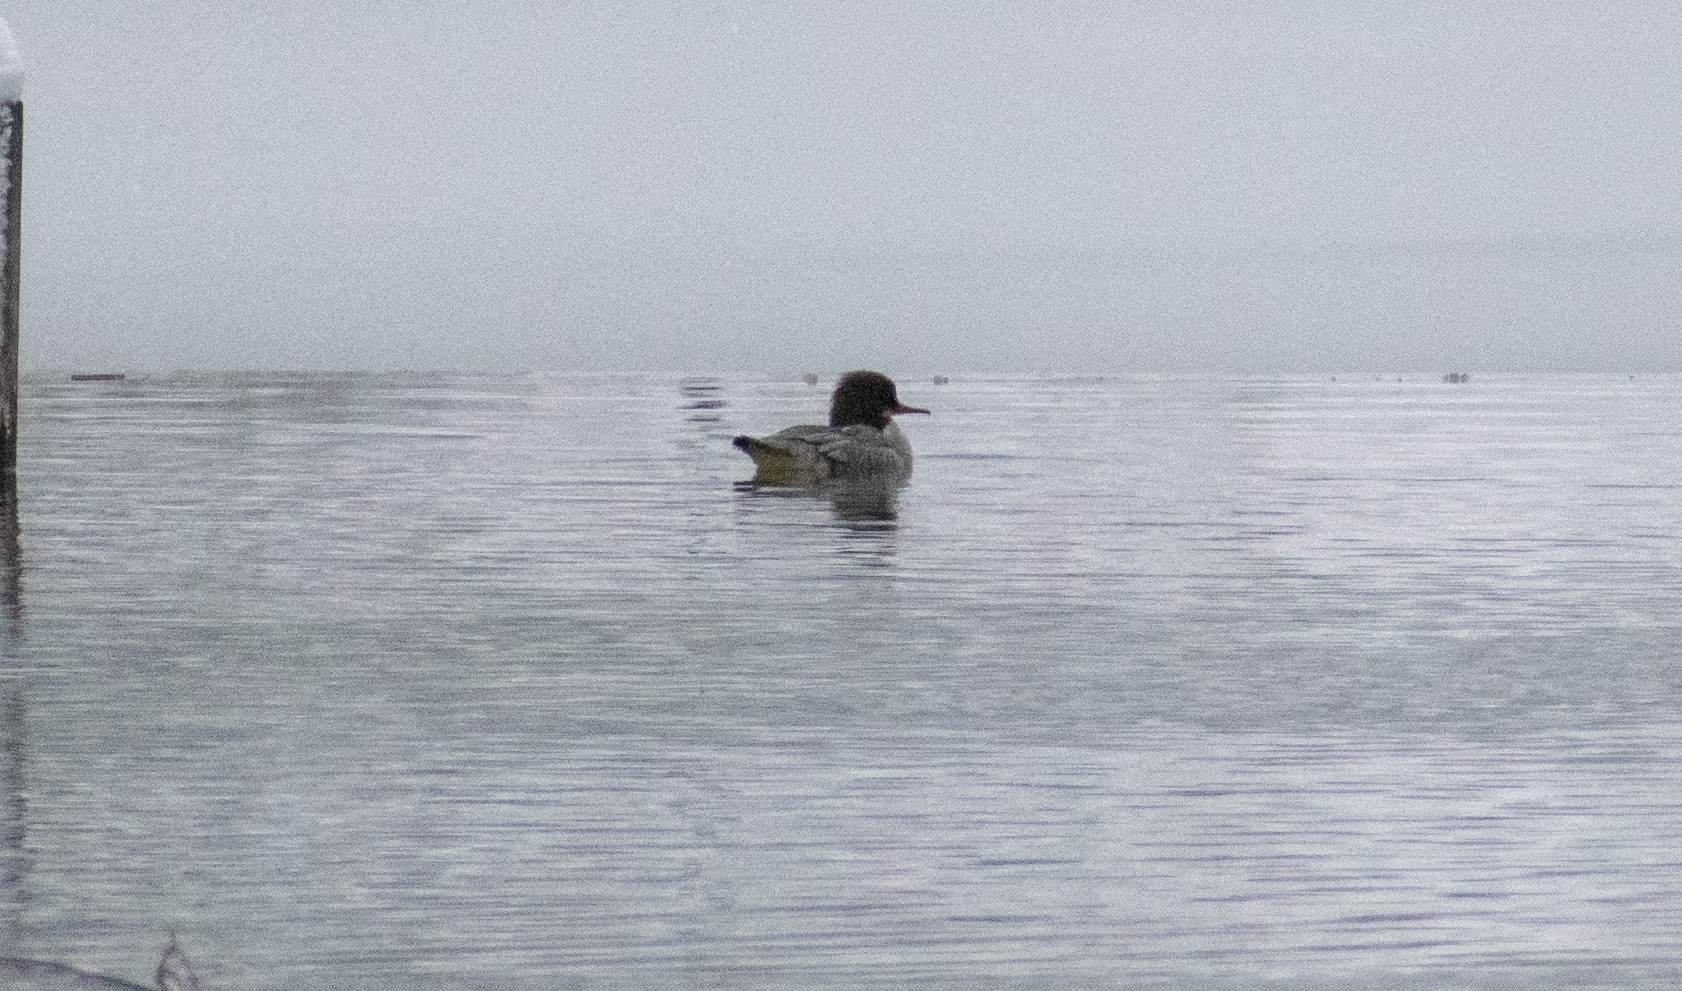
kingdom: Animalia
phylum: Chordata
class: Aves
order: Anseriformes
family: Anatidae
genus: Mergus
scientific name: Mergus merganser
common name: Common merganser
